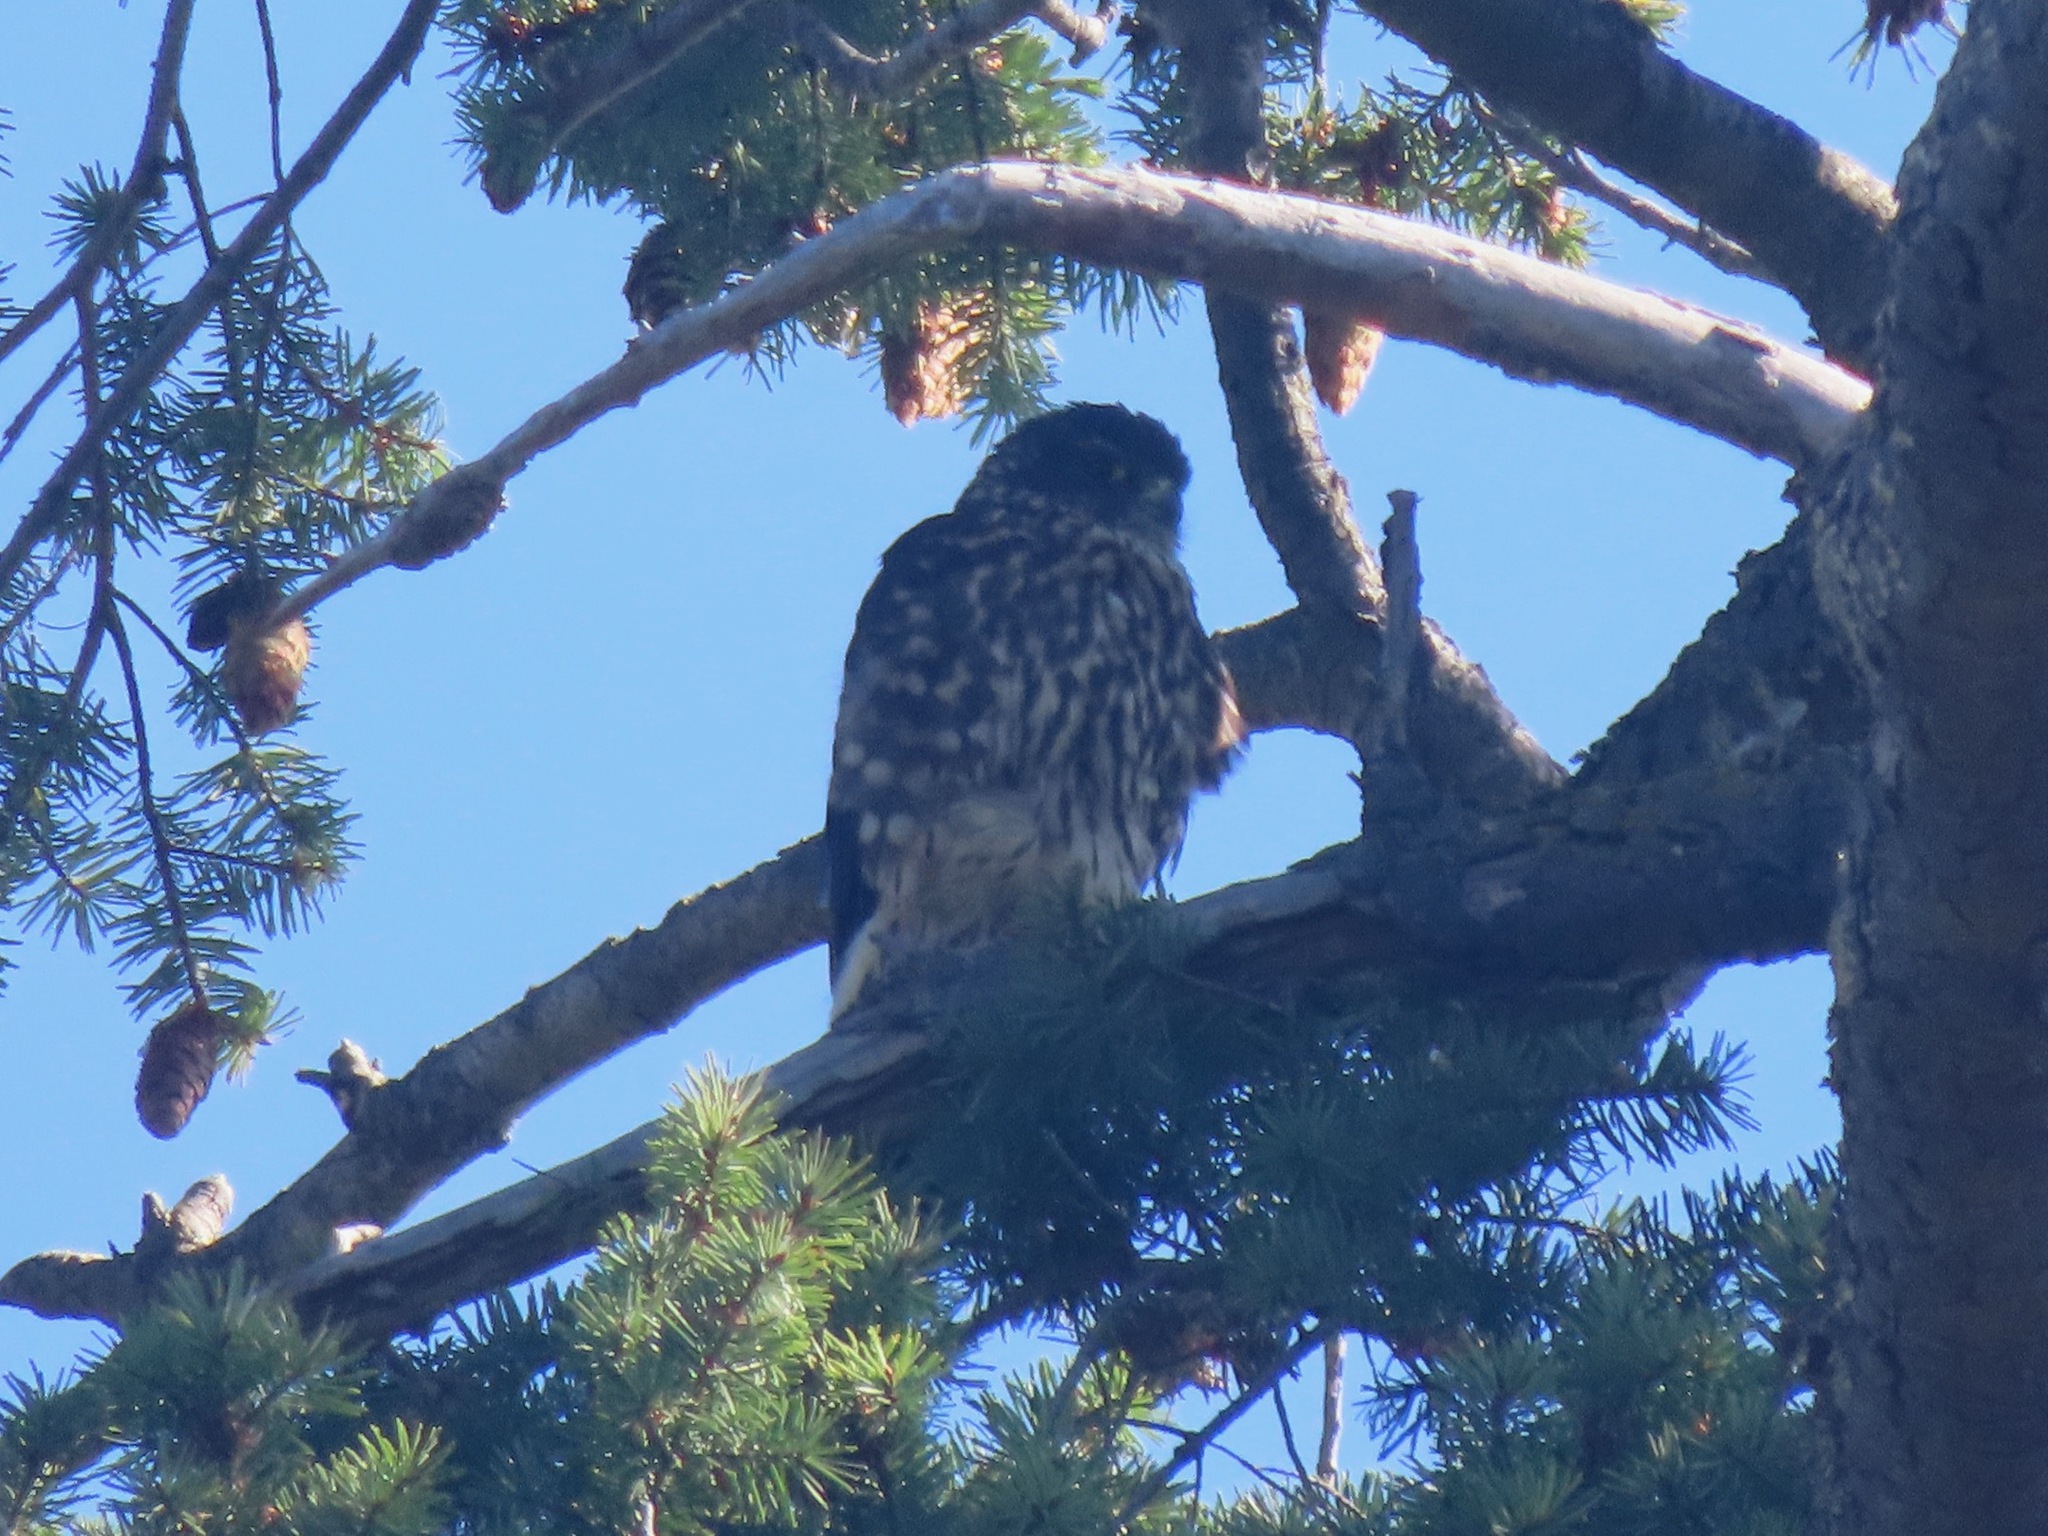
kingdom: Animalia
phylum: Chordata
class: Aves
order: Falconiformes
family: Falconidae
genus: Falco
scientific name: Falco columbarius
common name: Merlin
